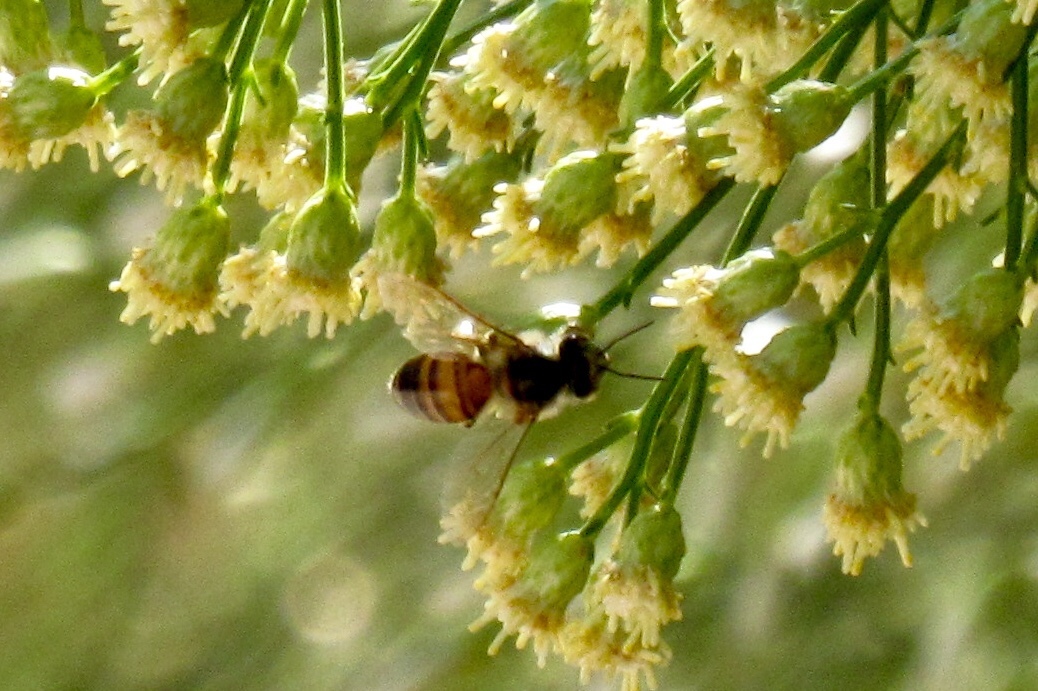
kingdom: Animalia
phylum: Arthropoda
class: Insecta
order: Hymenoptera
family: Apidae
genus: Apis
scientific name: Apis mellifera
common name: Honey bee
